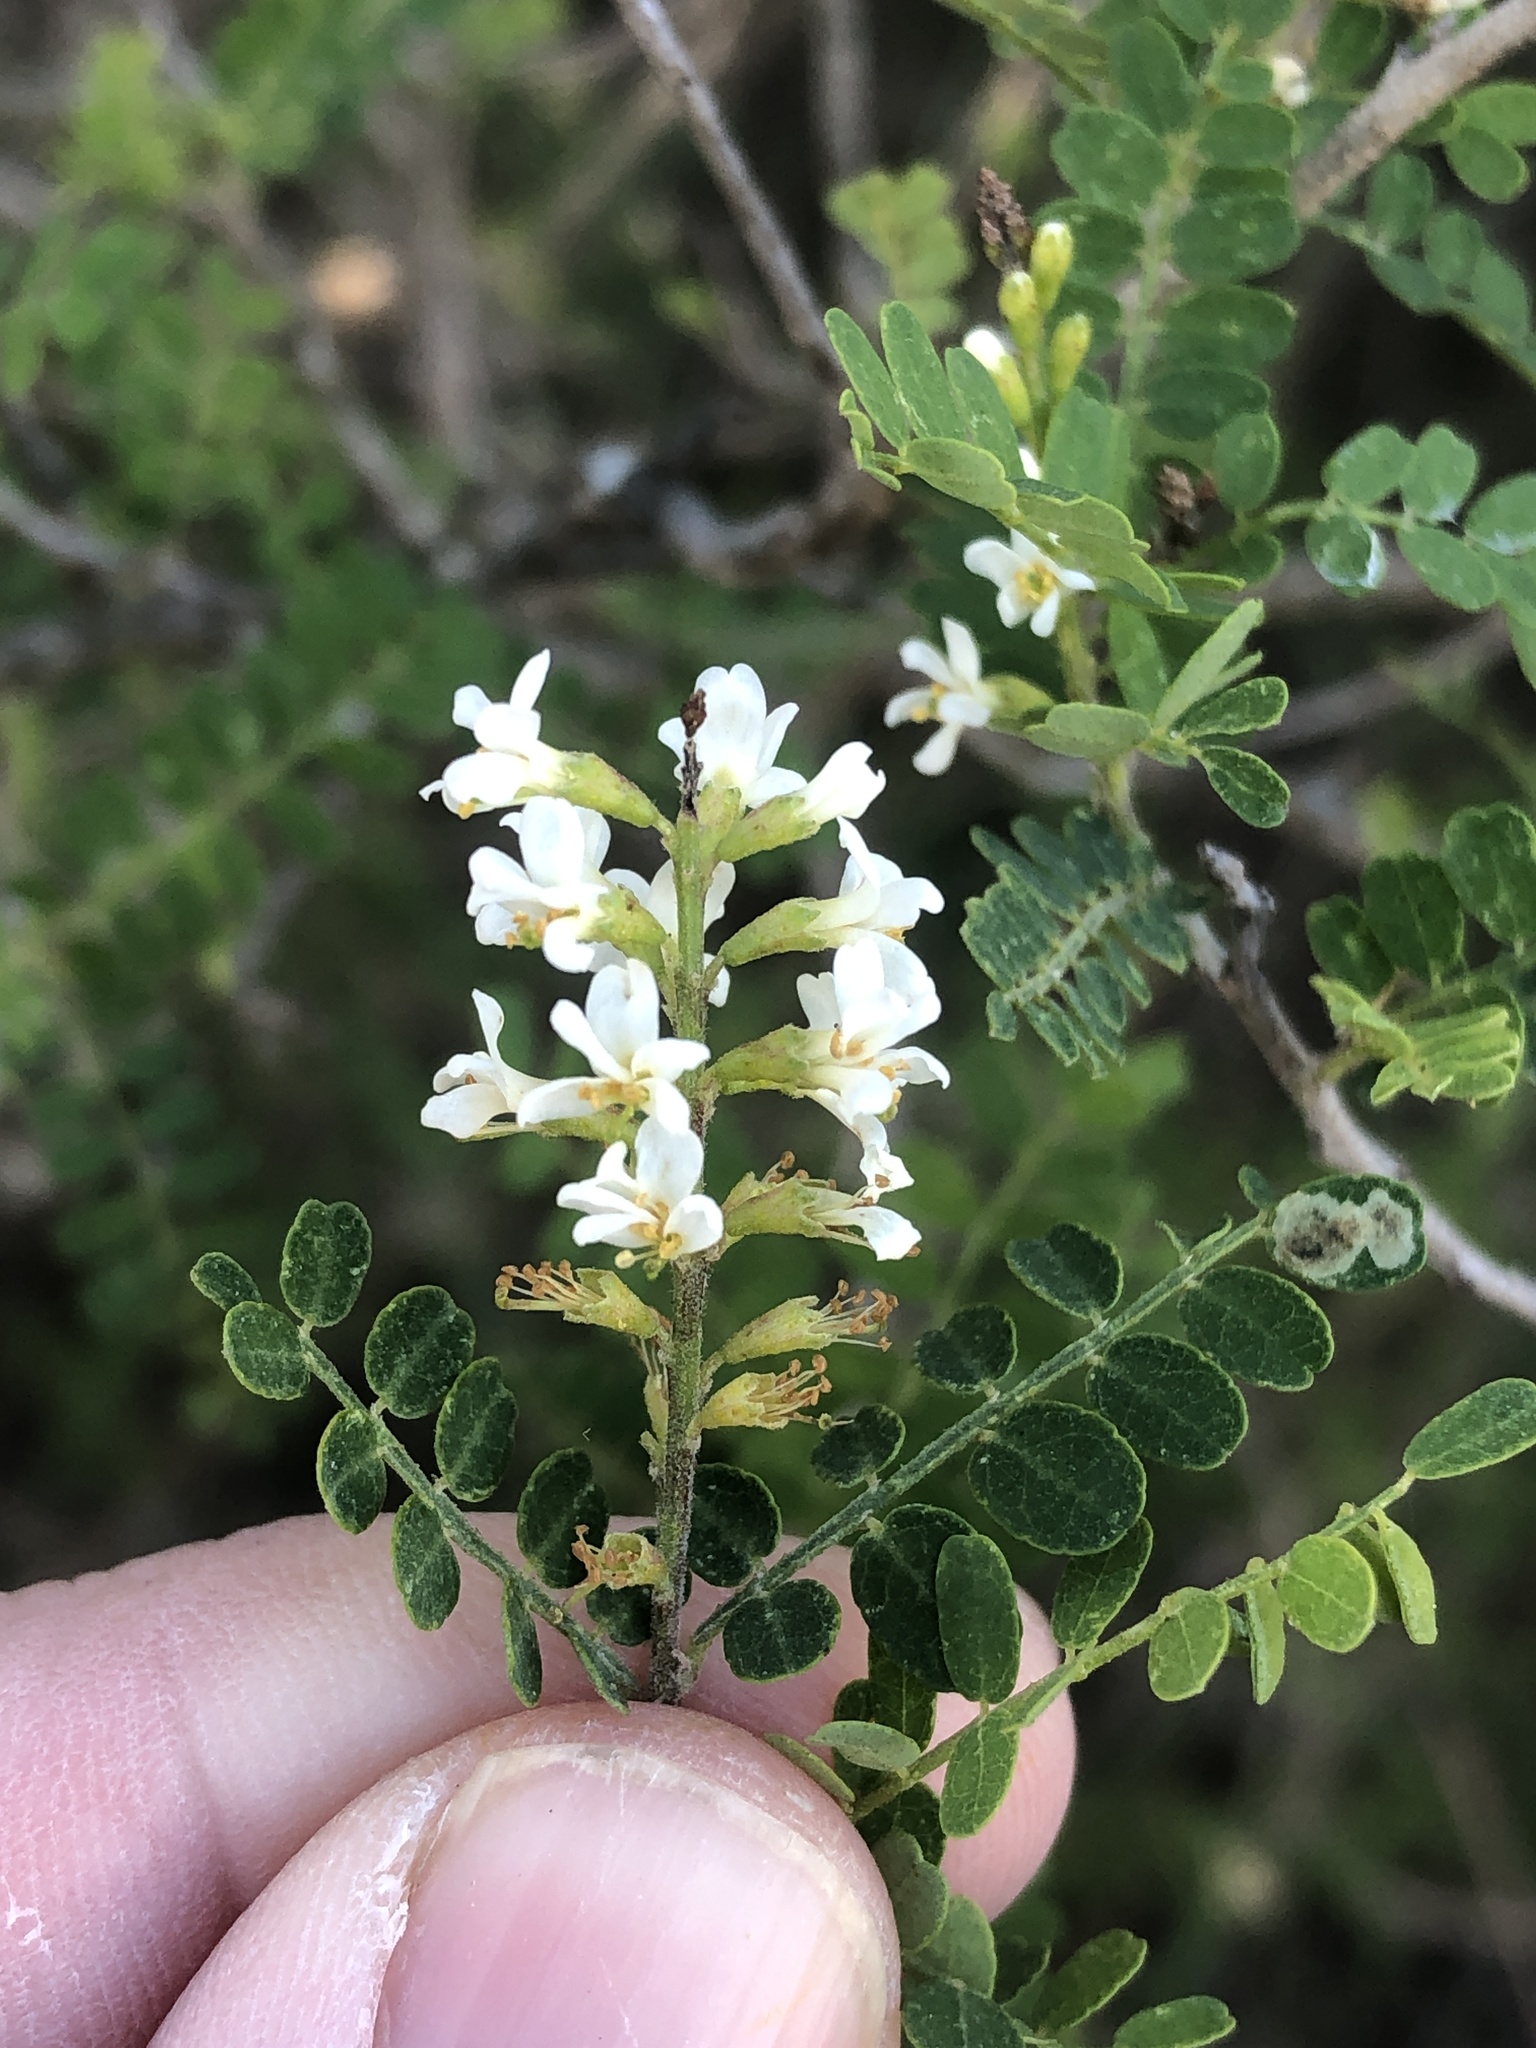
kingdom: Plantae
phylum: Tracheophyta
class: Magnoliopsida
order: Fabales
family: Fabaceae
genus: Eysenhardtia
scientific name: Eysenhardtia texana
